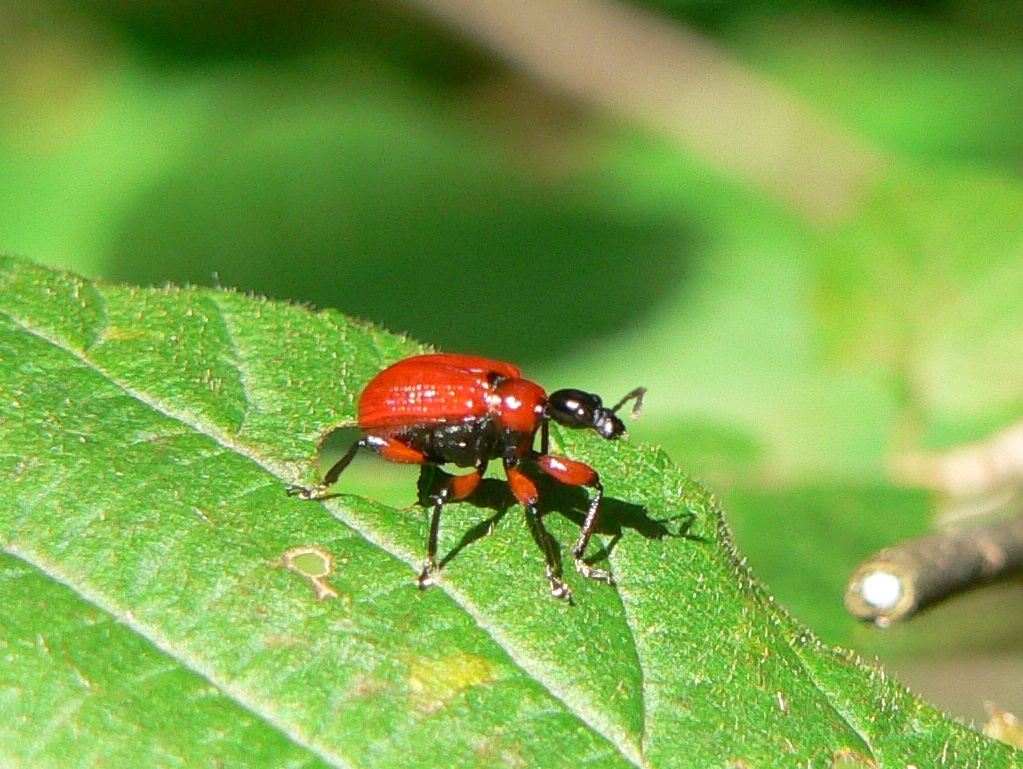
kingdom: Animalia
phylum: Arthropoda
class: Insecta
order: Coleoptera
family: Attelabidae
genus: Apoderus
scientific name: Apoderus coryli
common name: Hazel leaf roller
